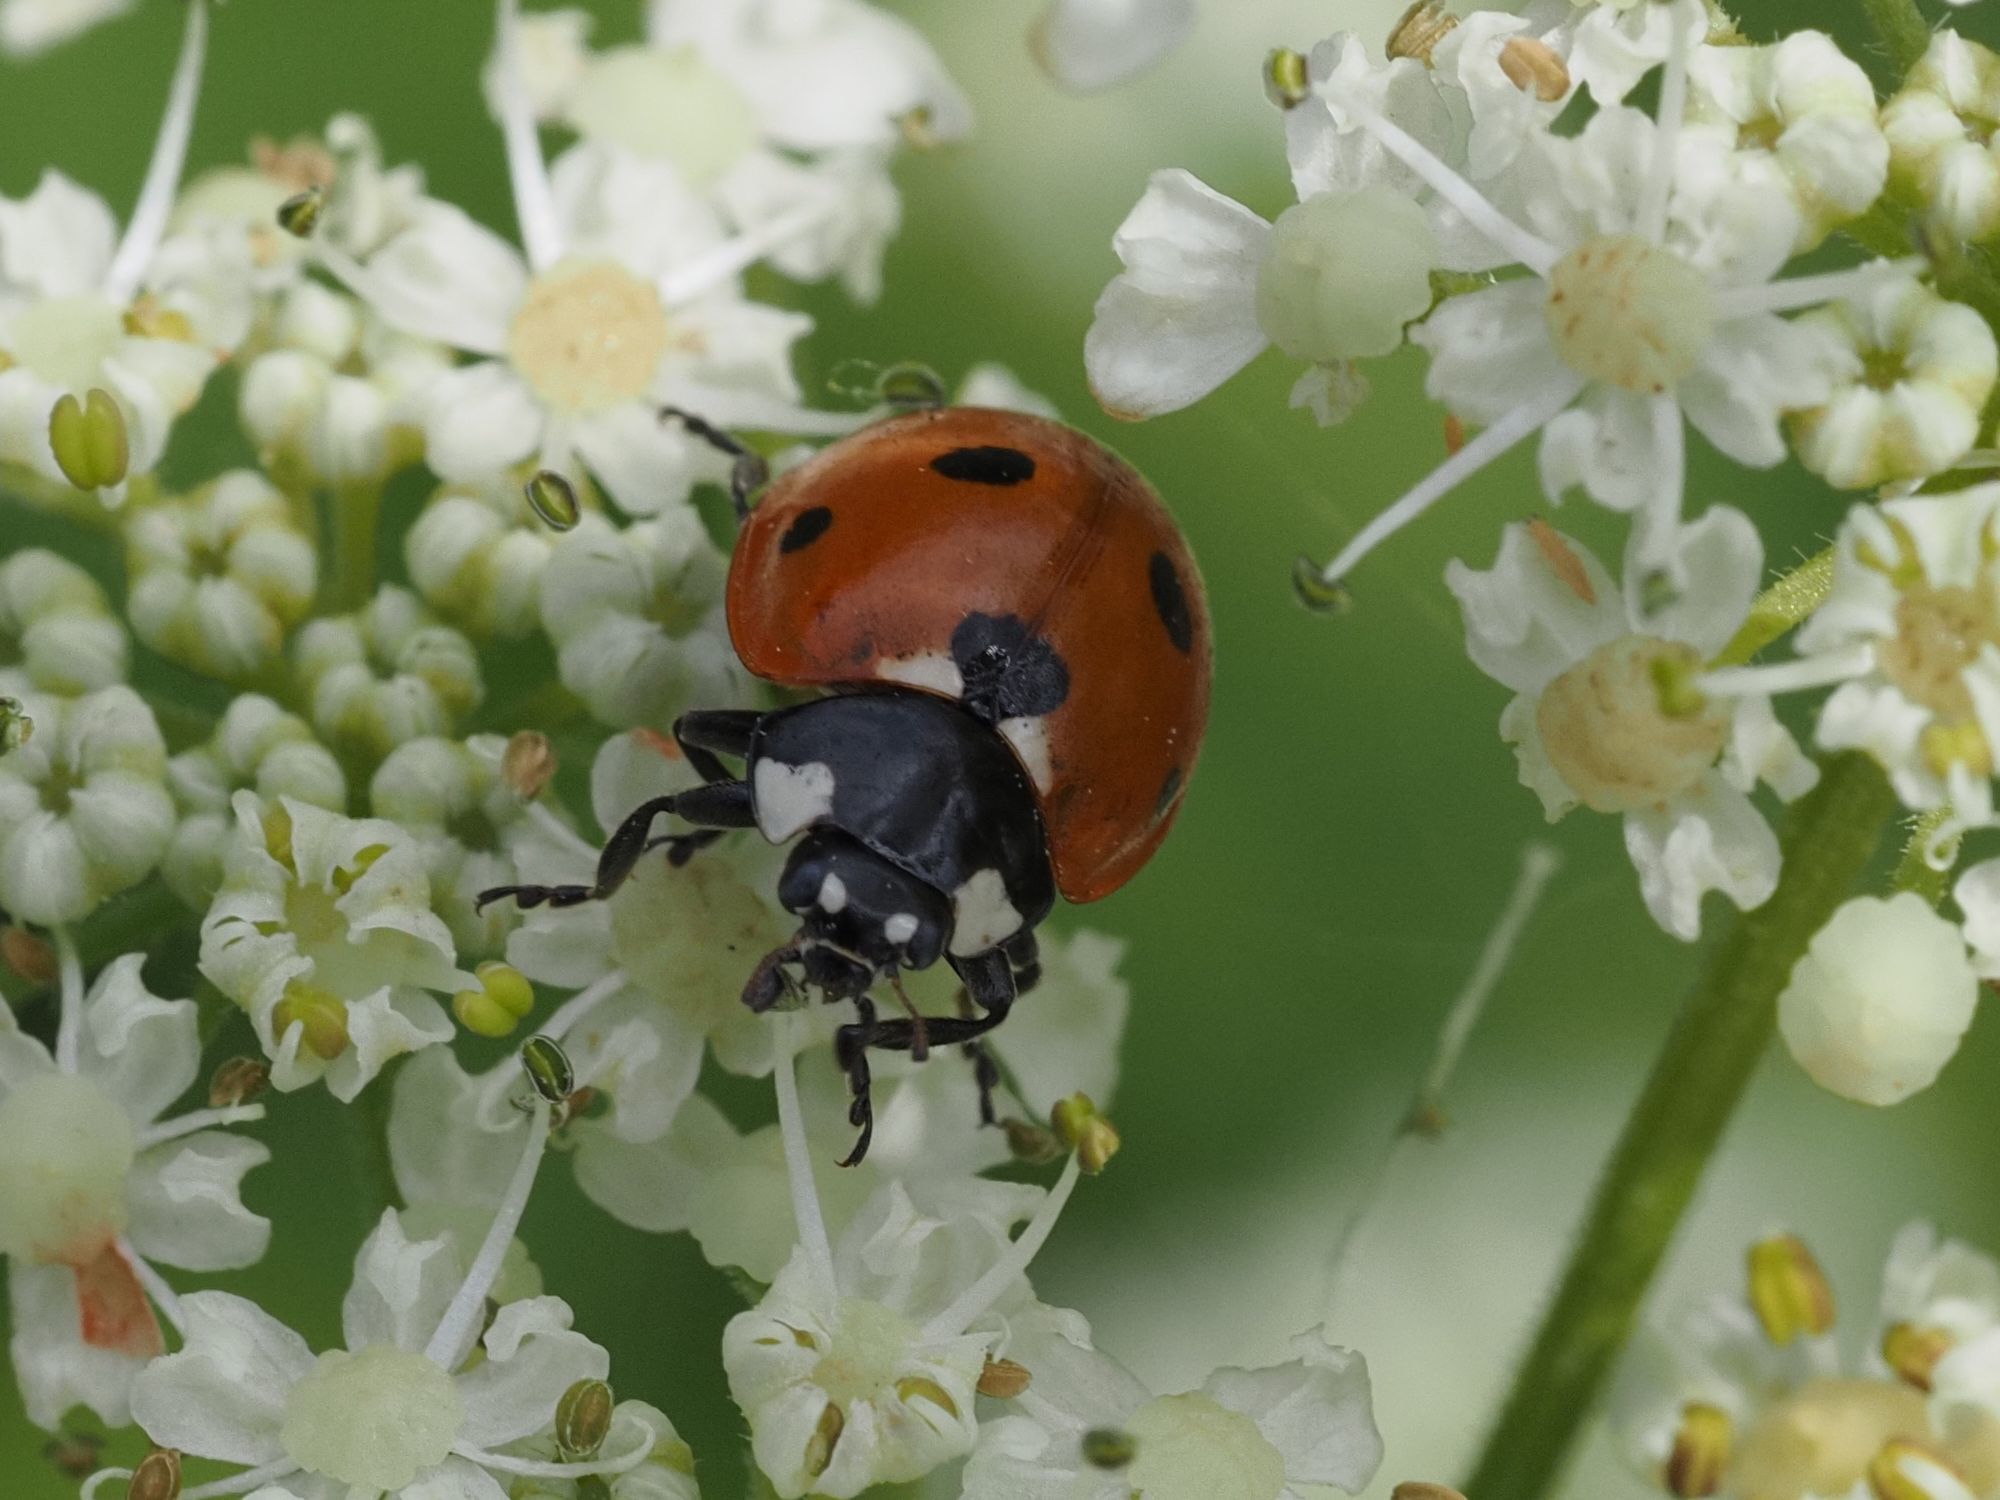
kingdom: Animalia
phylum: Arthropoda
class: Insecta
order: Coleoptera
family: Coccinellidae
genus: Coccinella
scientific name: Coccinella septempunctata
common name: Sevenspotted lady beetle
